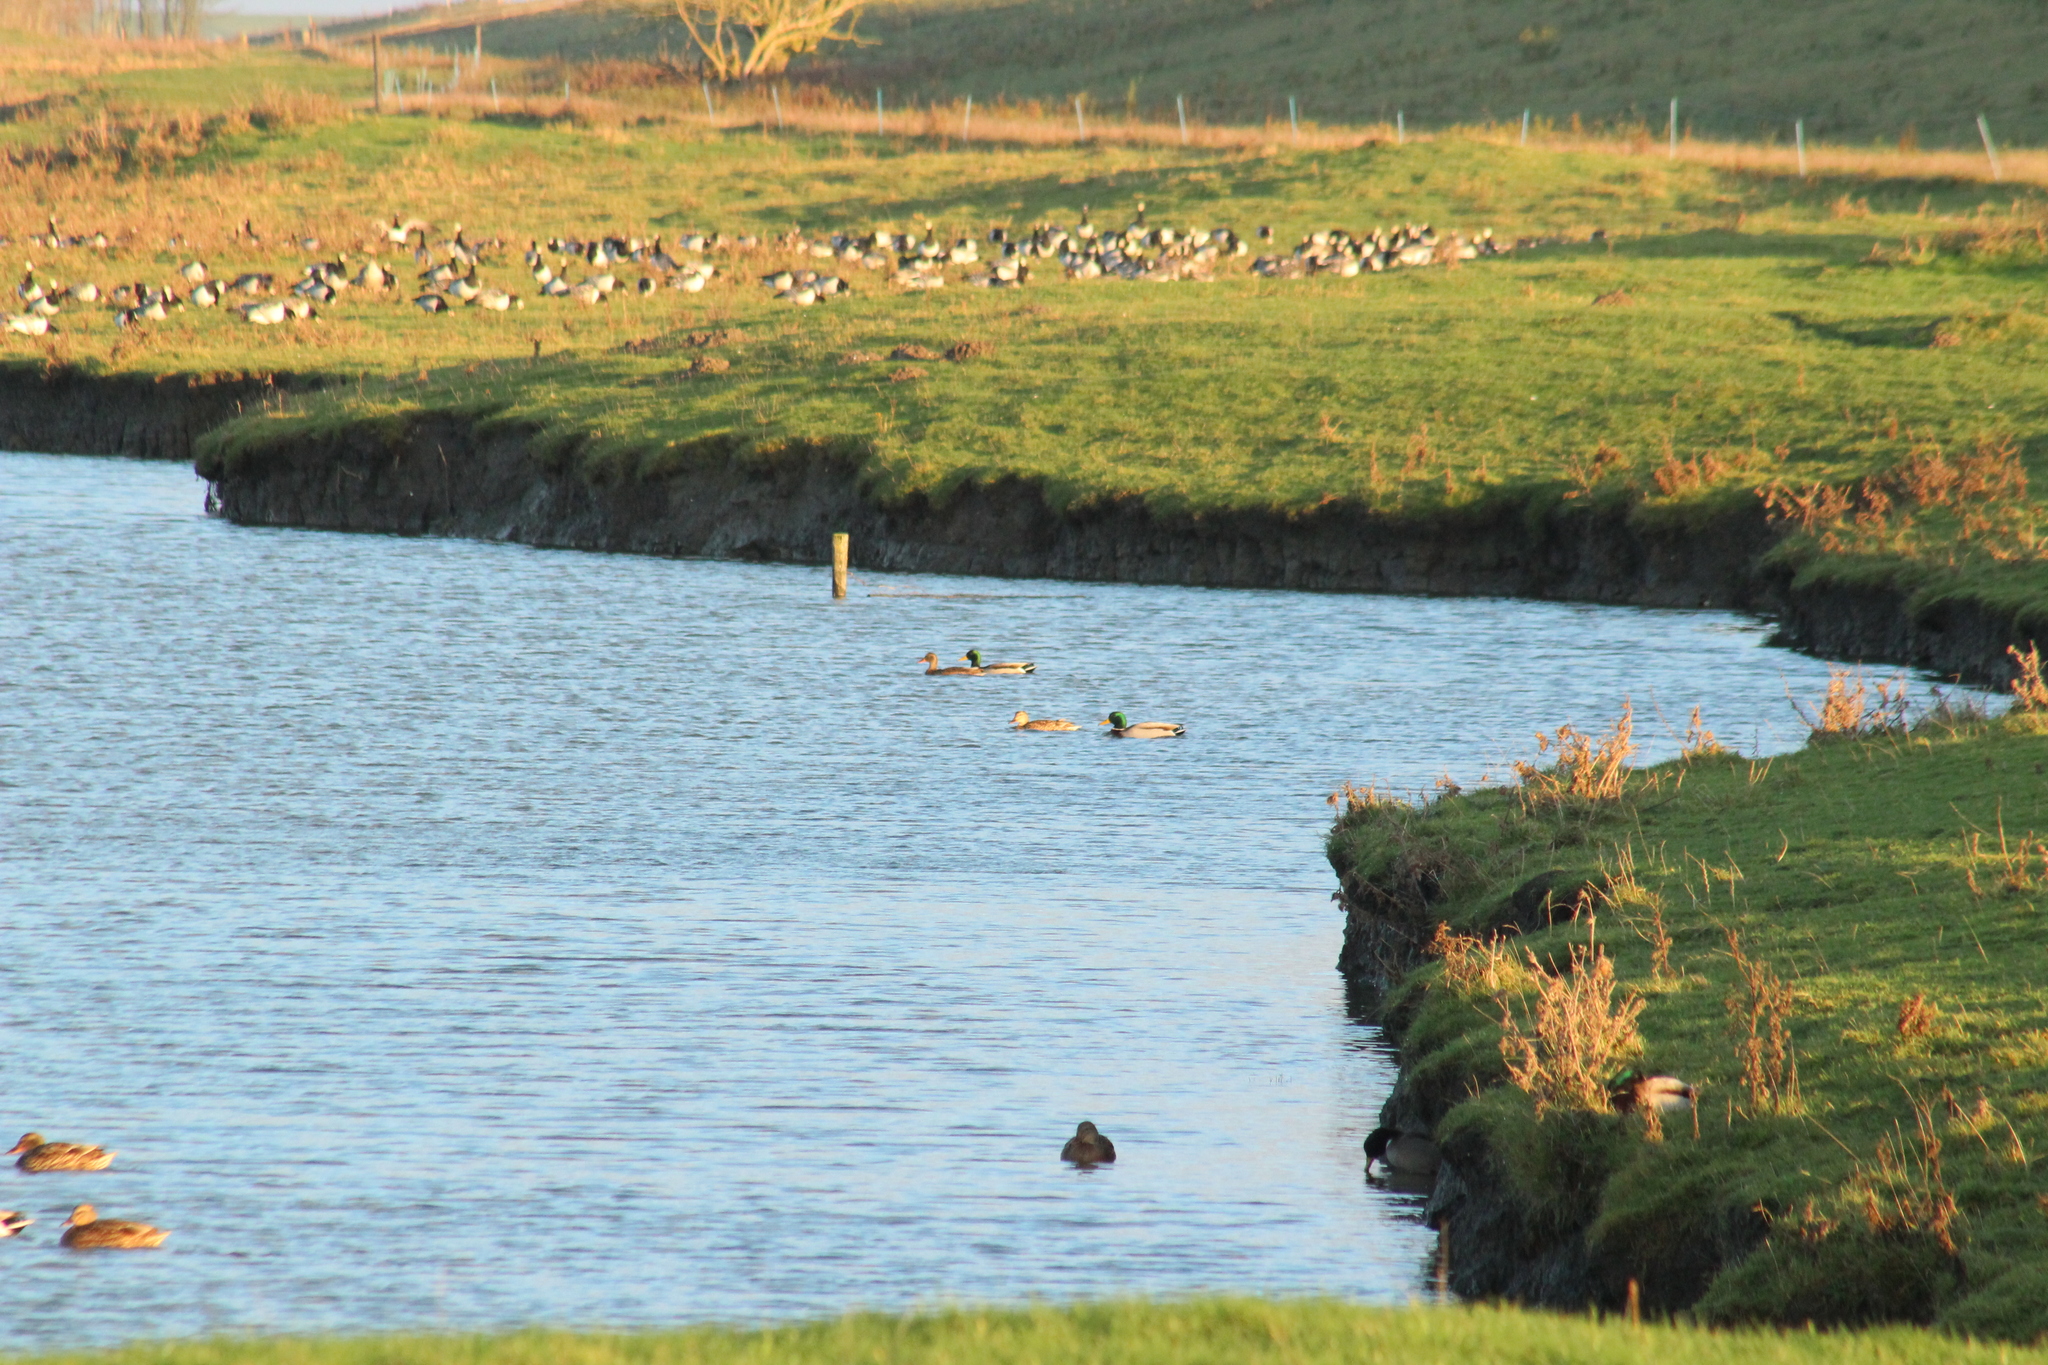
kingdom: Animalia
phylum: Chordata
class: Aves
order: Anseriformes
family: Anatidae
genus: Anas
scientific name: Anas platyrhynchos
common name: Mallard
